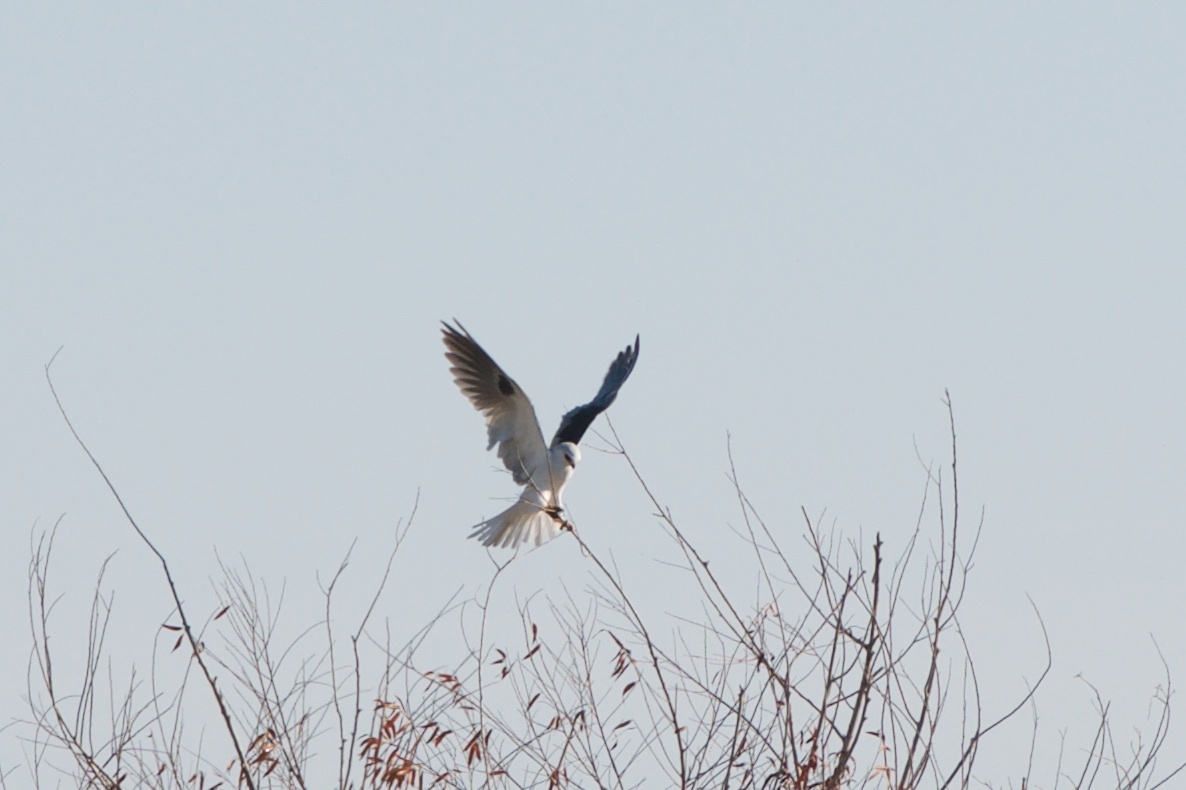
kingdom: Animalia
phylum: Chordata
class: Aves
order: Accipitriformes
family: Accipitridae
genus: Elanus
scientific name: Elanus leucurus
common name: White-tailed kite
